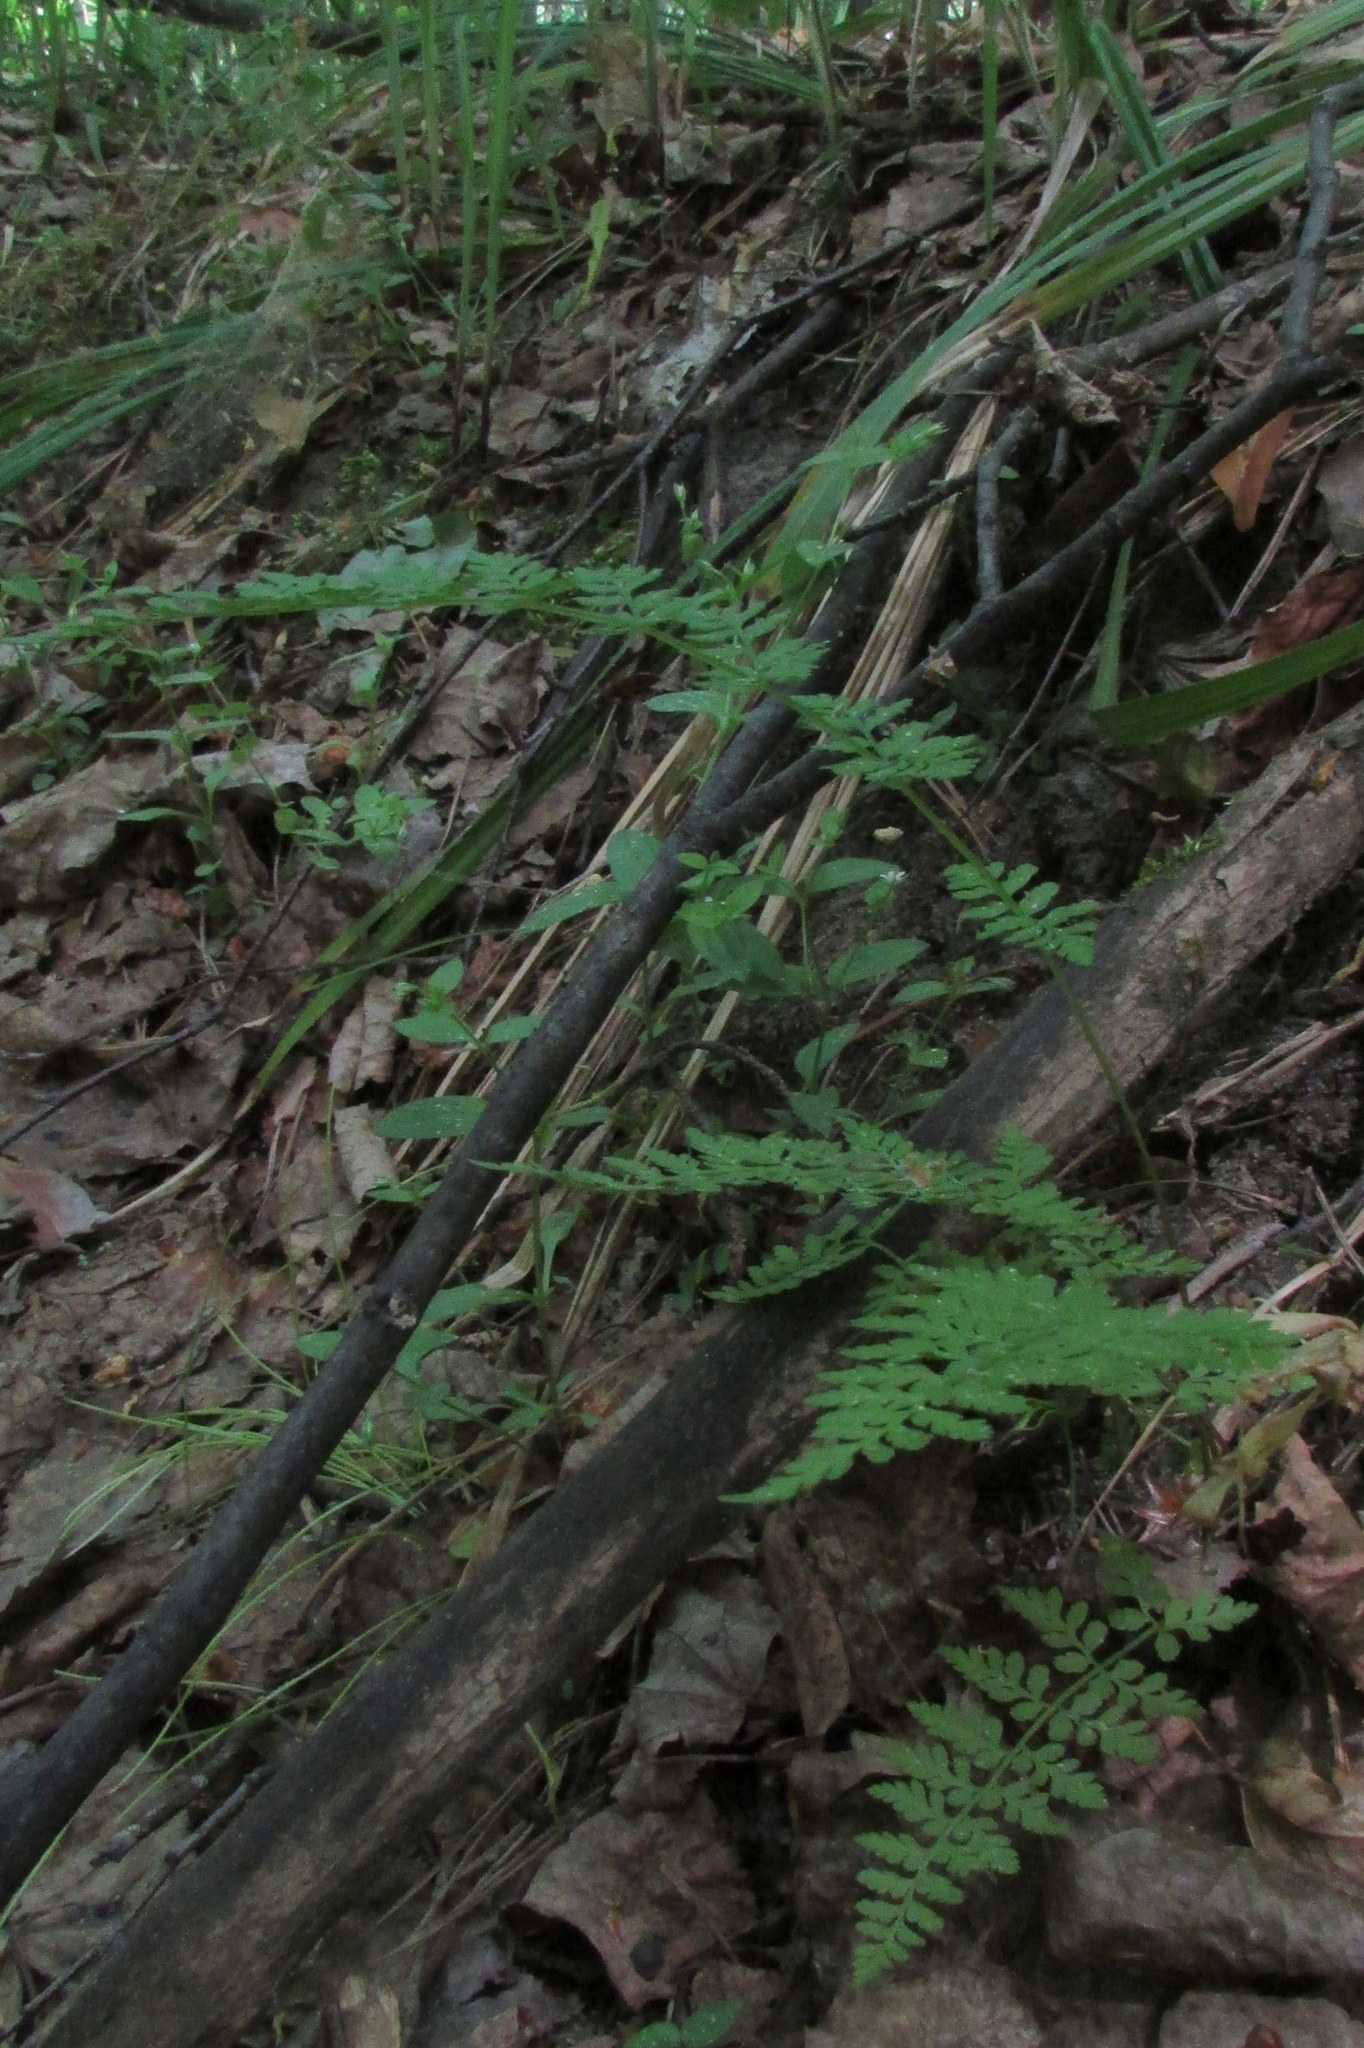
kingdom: Plantae
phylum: Tracheophyta
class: Polypodiopsida
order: Polypodiales
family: Cystopteridaceae
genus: Cystopteris
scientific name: Cystopteris fragilis
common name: Brittle bladder fern
